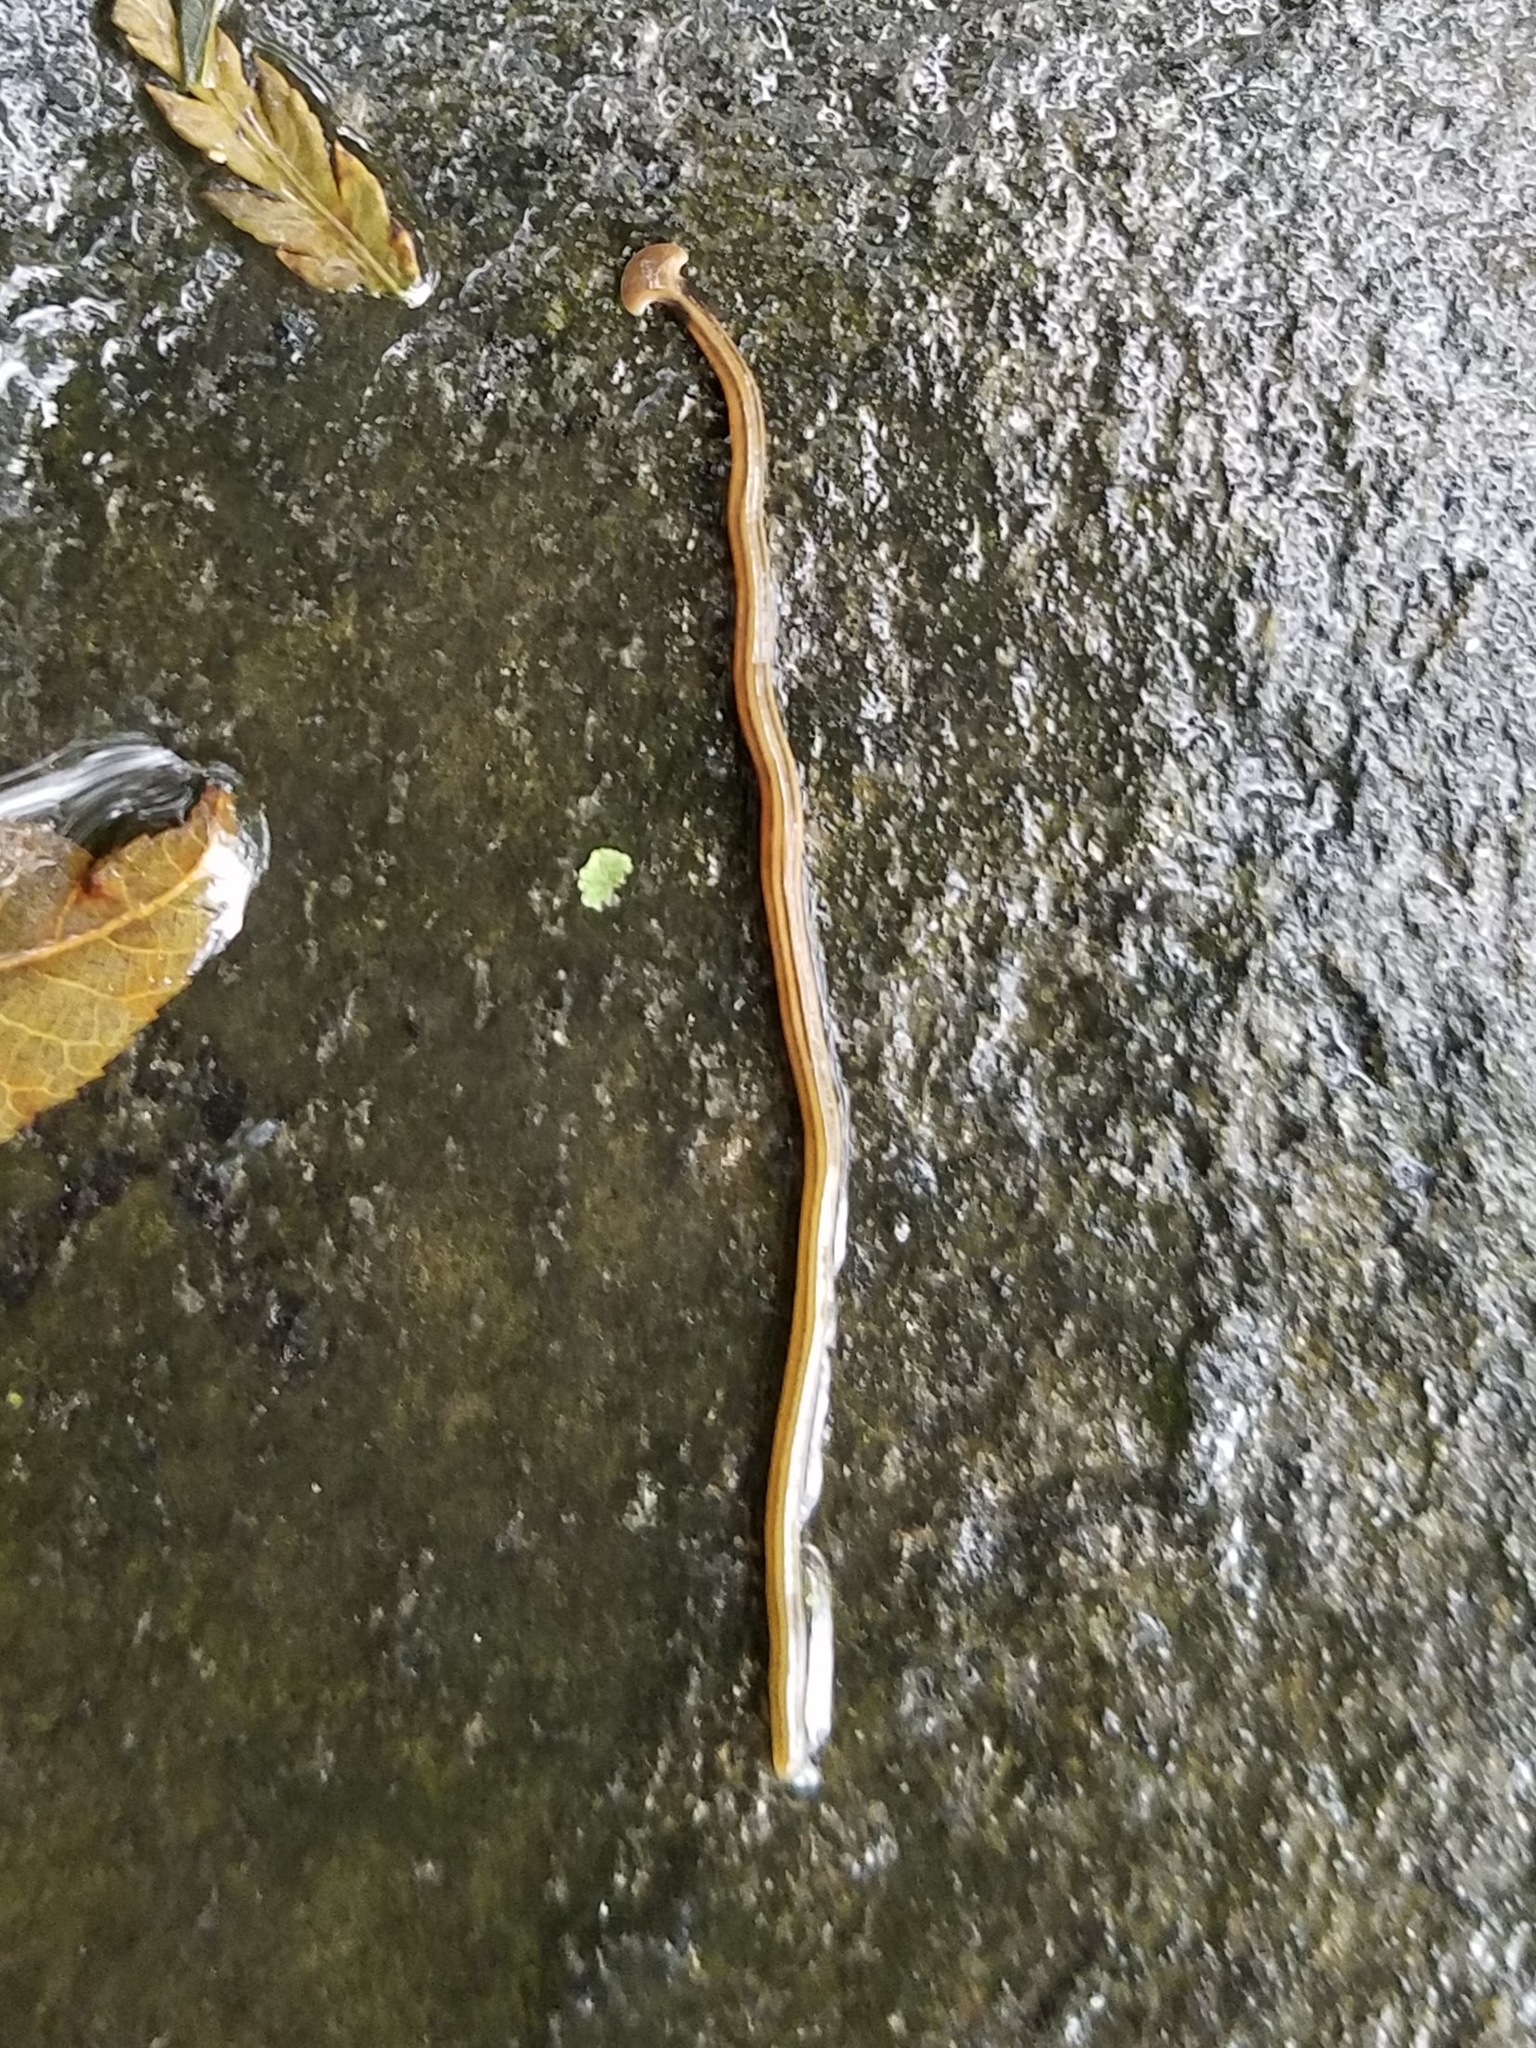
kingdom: Animalia
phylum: Platyhelminthes
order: Tricladida
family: Geoplanidae
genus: Bipalium
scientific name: Bipalium kewense
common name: Hammerhead flatworm
